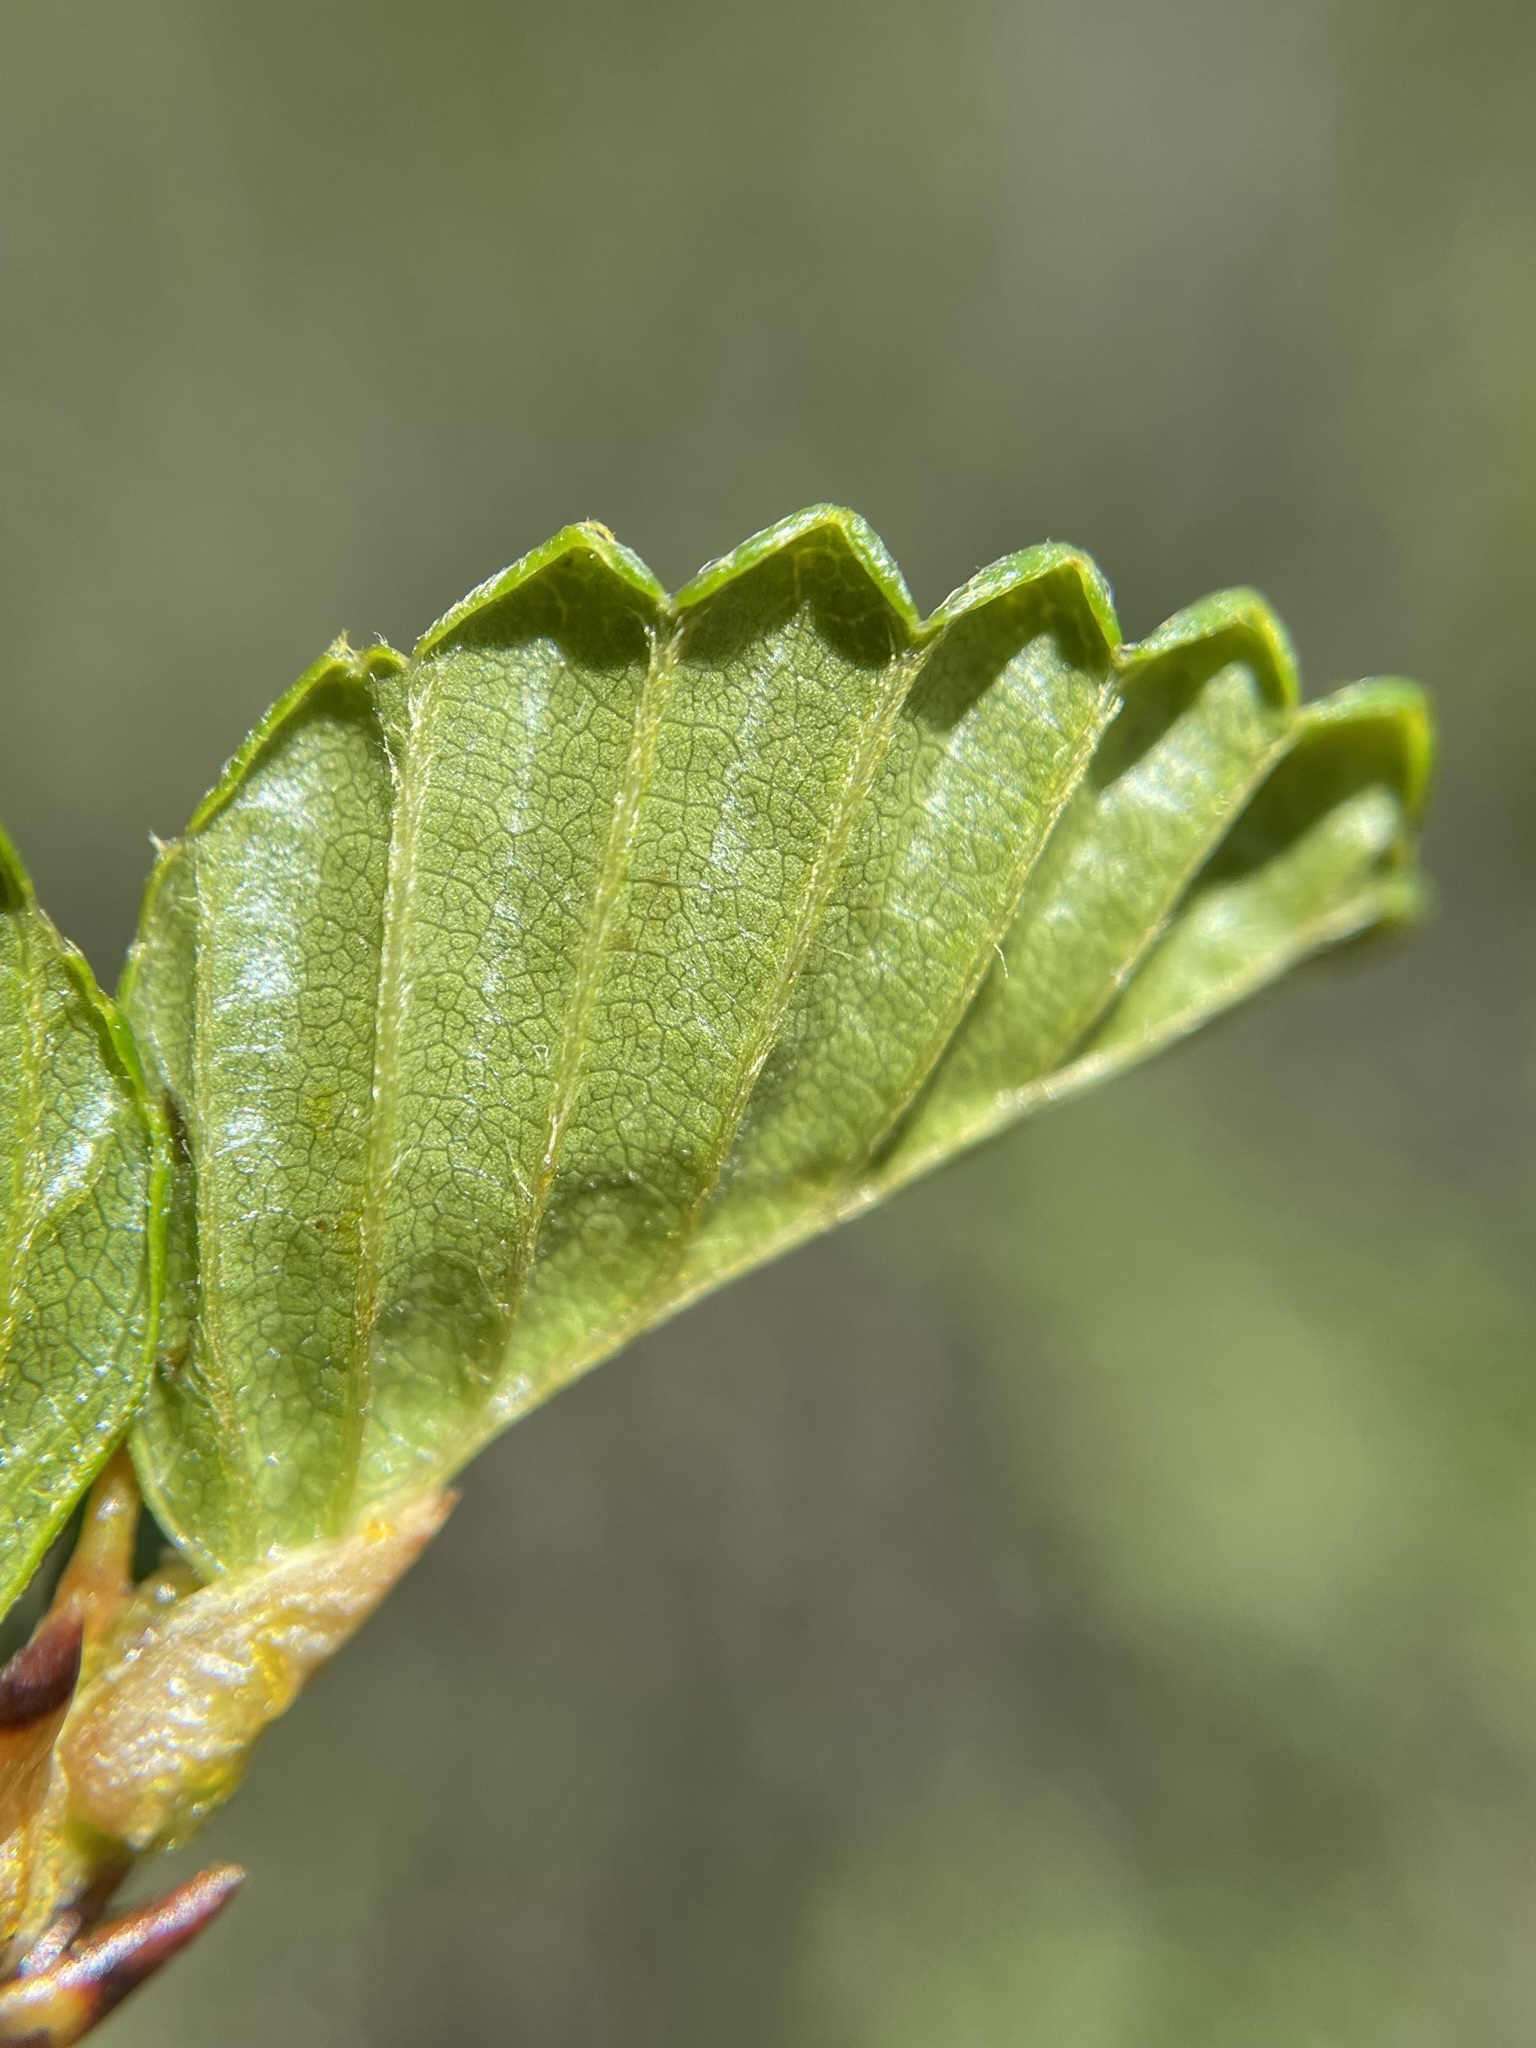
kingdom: Plantae
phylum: Tracheophyta
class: Magnoliopsida
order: Fagales
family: Nothofagaceae
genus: Nothofagus
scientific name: Nothofagus gunnii
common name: Tanglefoot
